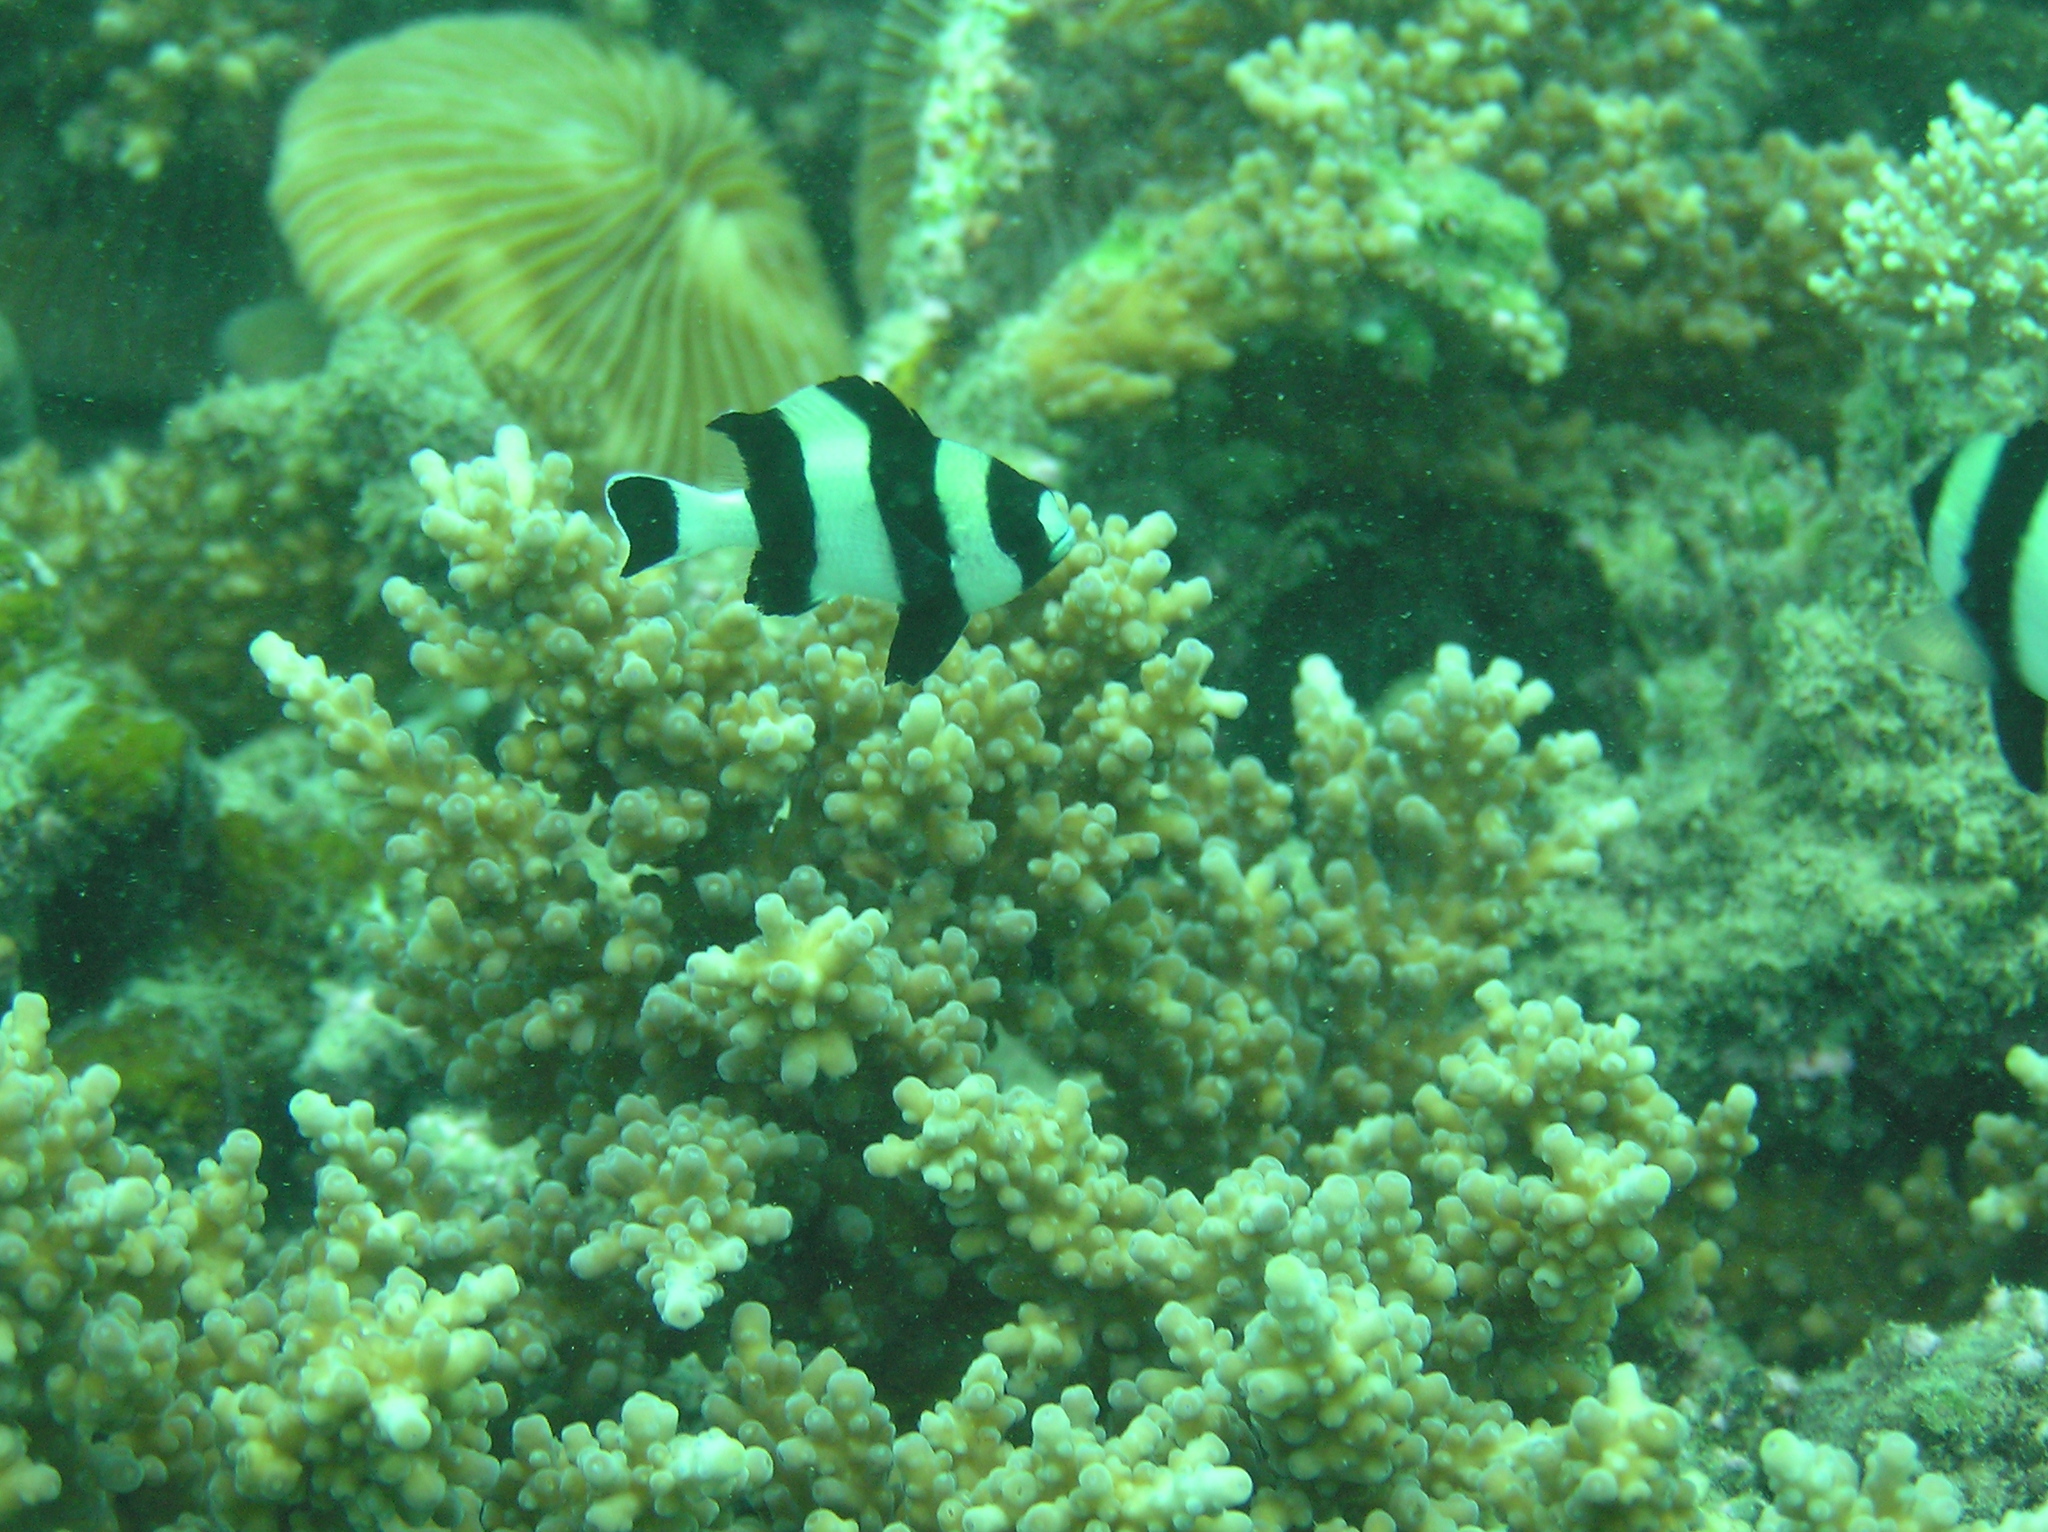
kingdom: Animalia
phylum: Chordata
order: Perciformes
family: Pomacentridae
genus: Dascyllus
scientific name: Dascyllus melanurus
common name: Black-tail dascyllus
